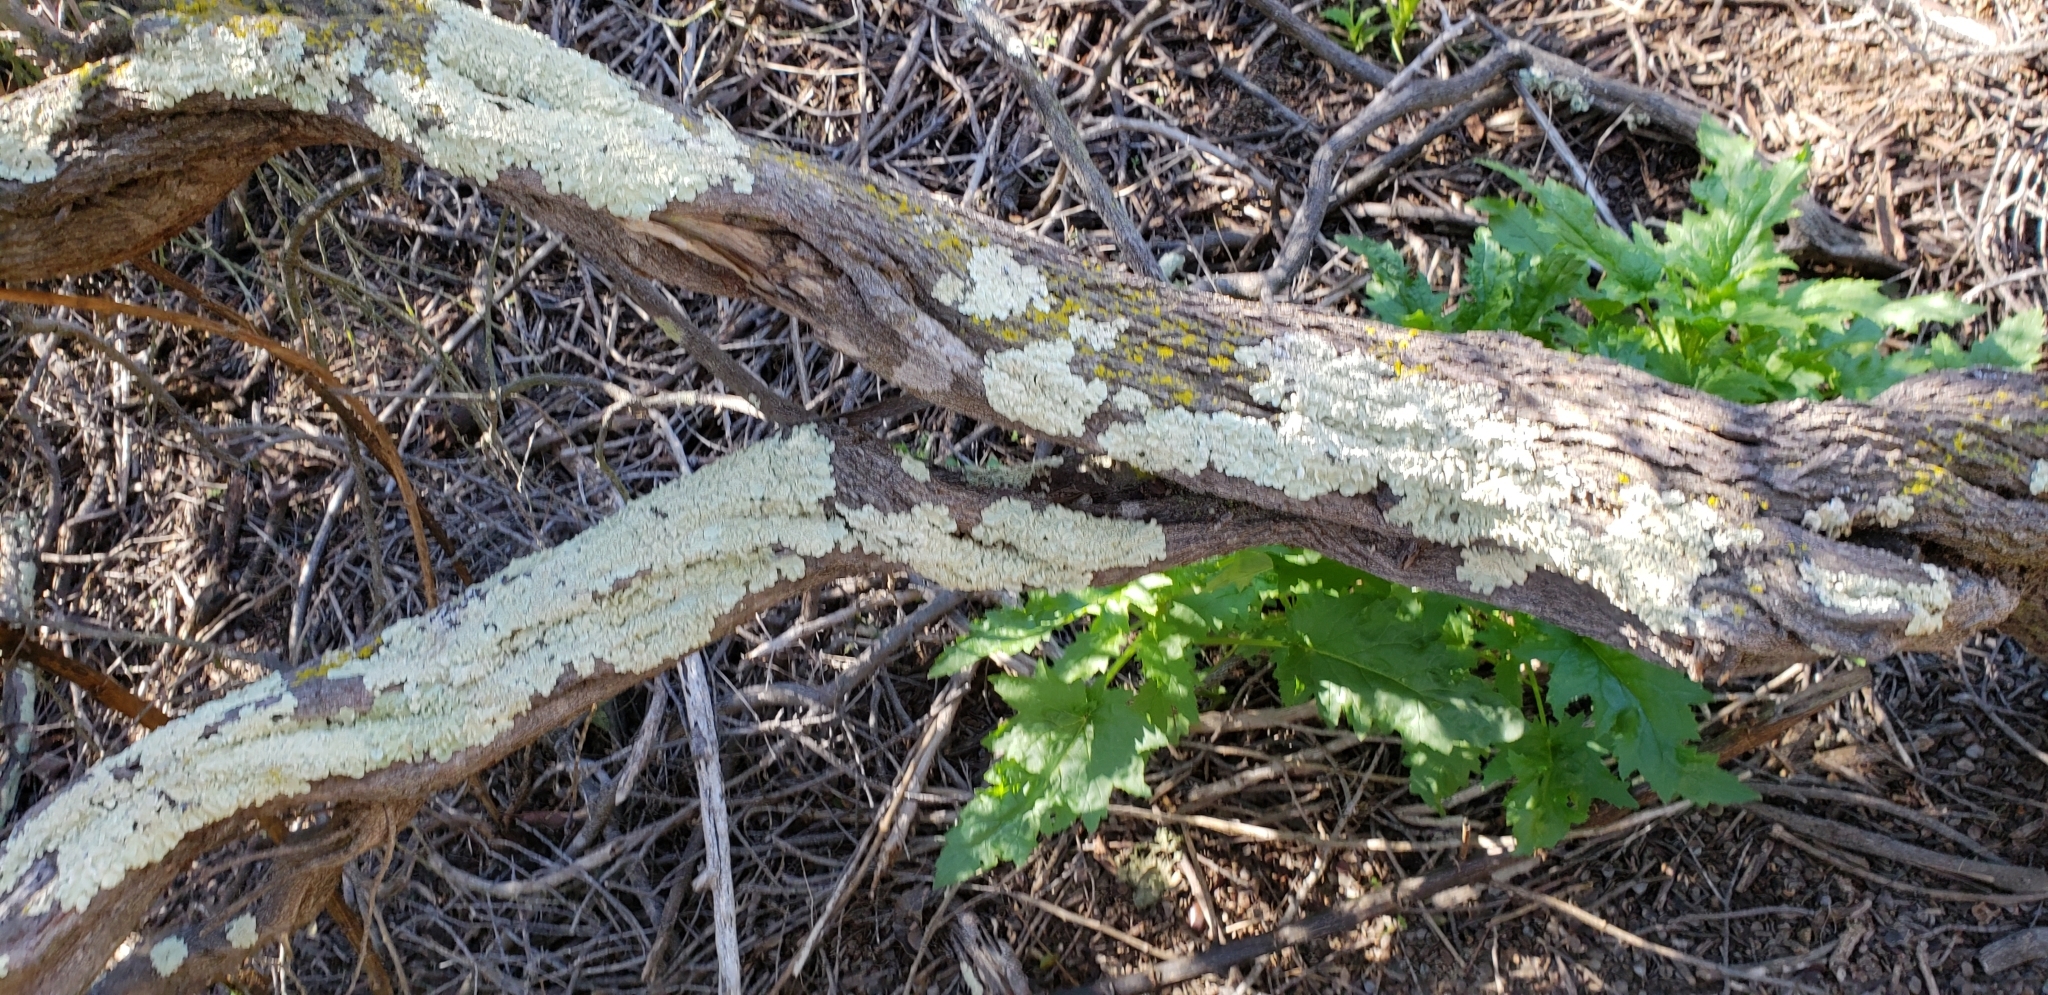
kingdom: Fungi
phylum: Ascomycota
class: Lecanoromycetes
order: Lecanorales
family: Parmeliaceae
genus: Flavoparmelia
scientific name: Flavoparmelia caperata
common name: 40-mile per hour lichen
